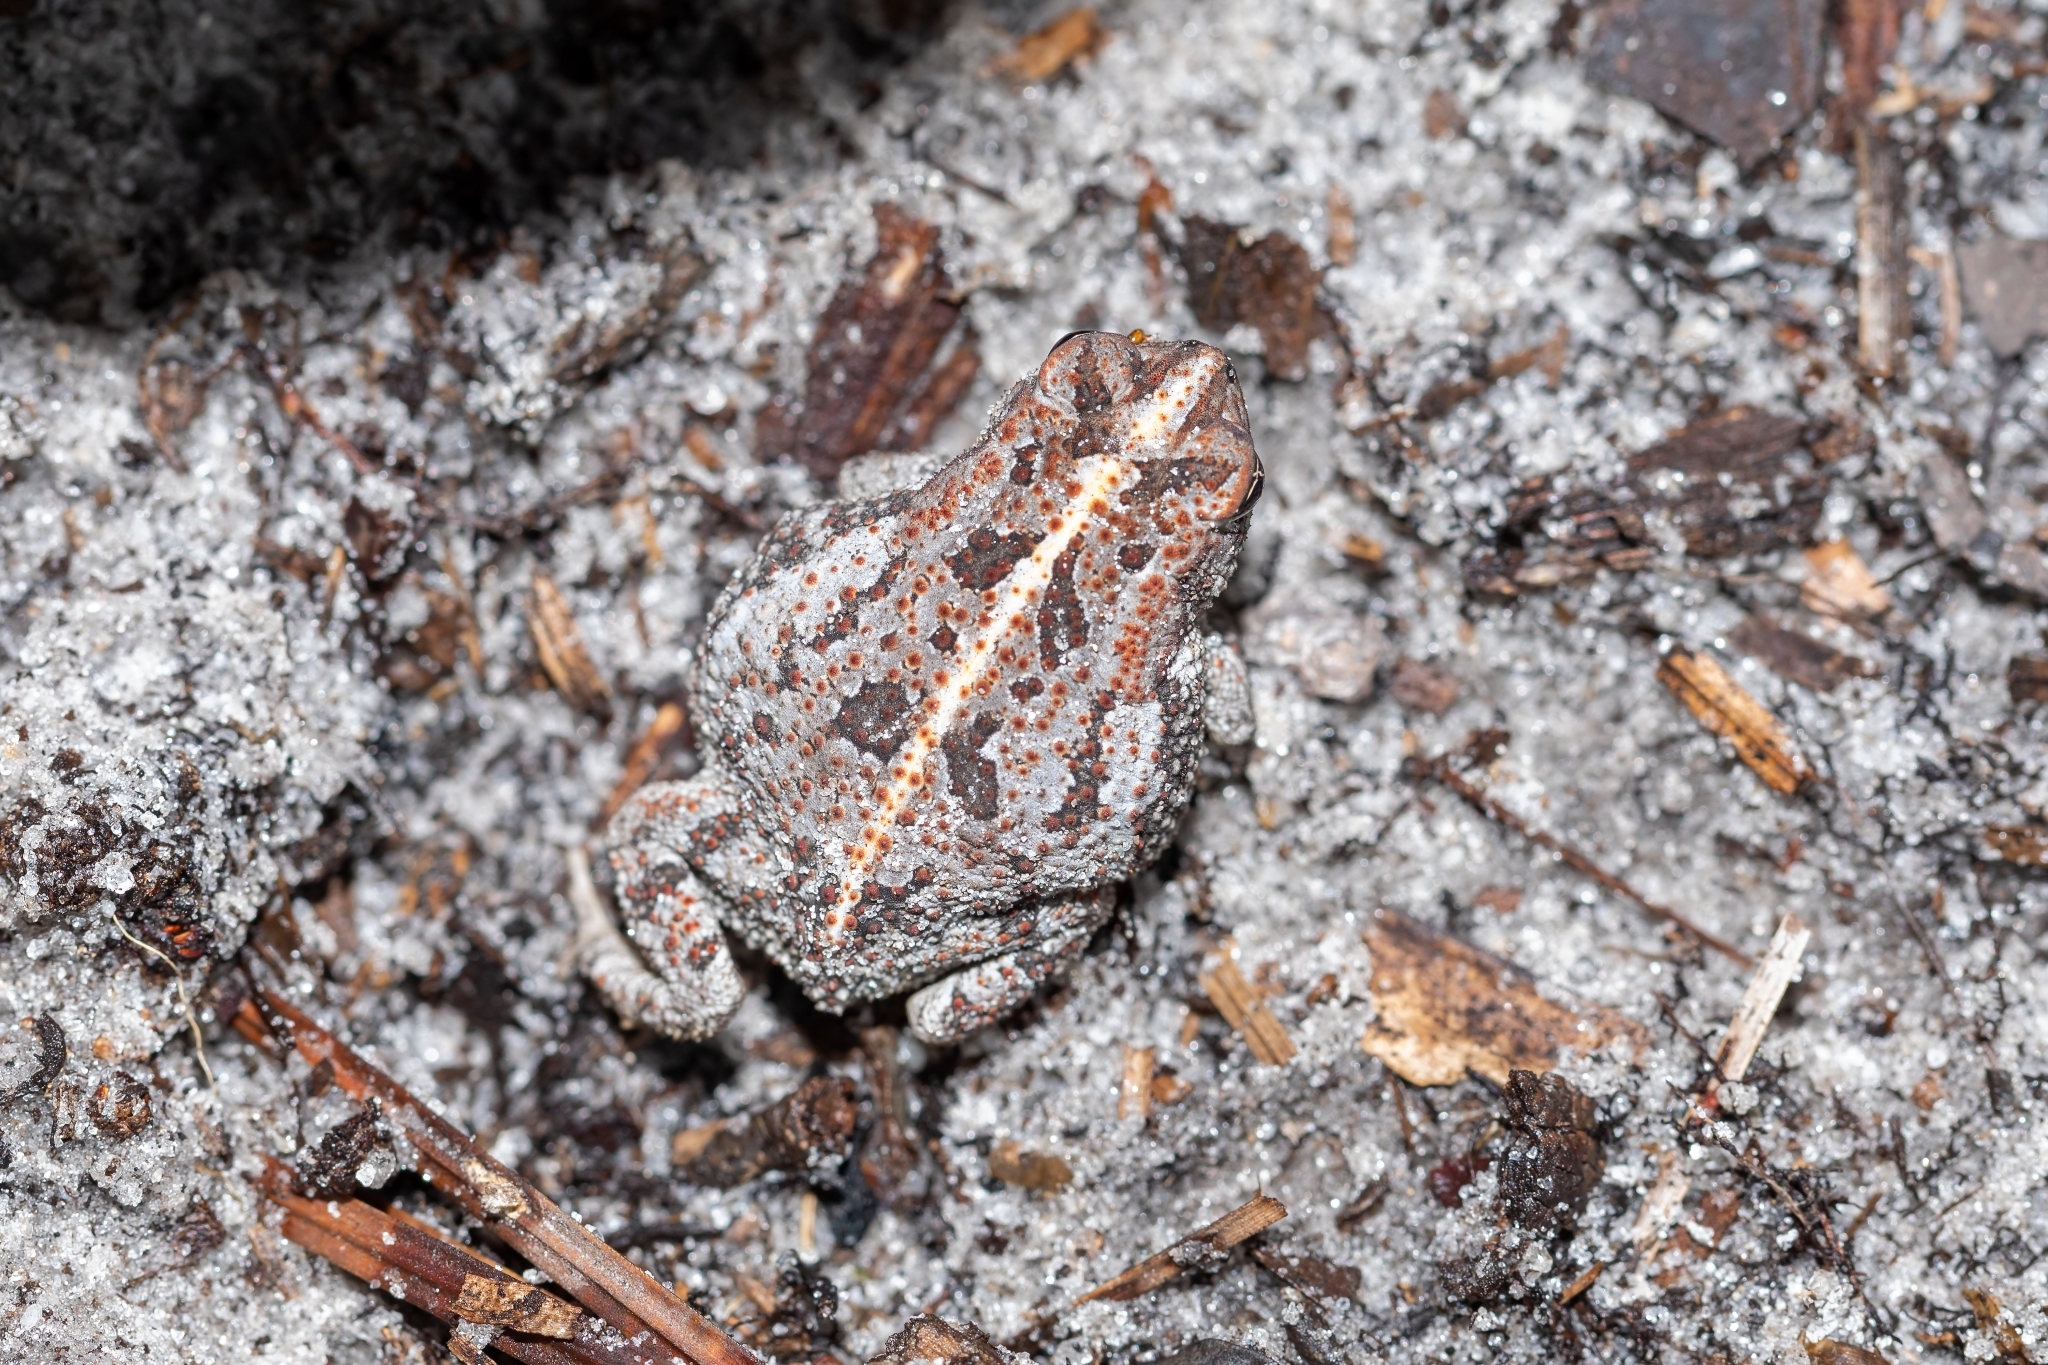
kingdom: Animalia
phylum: Chordata
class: Amphibia
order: Anura
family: Bufonidae
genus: Anaxyrus
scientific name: Anaxyrus quercicus
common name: Oak toad
